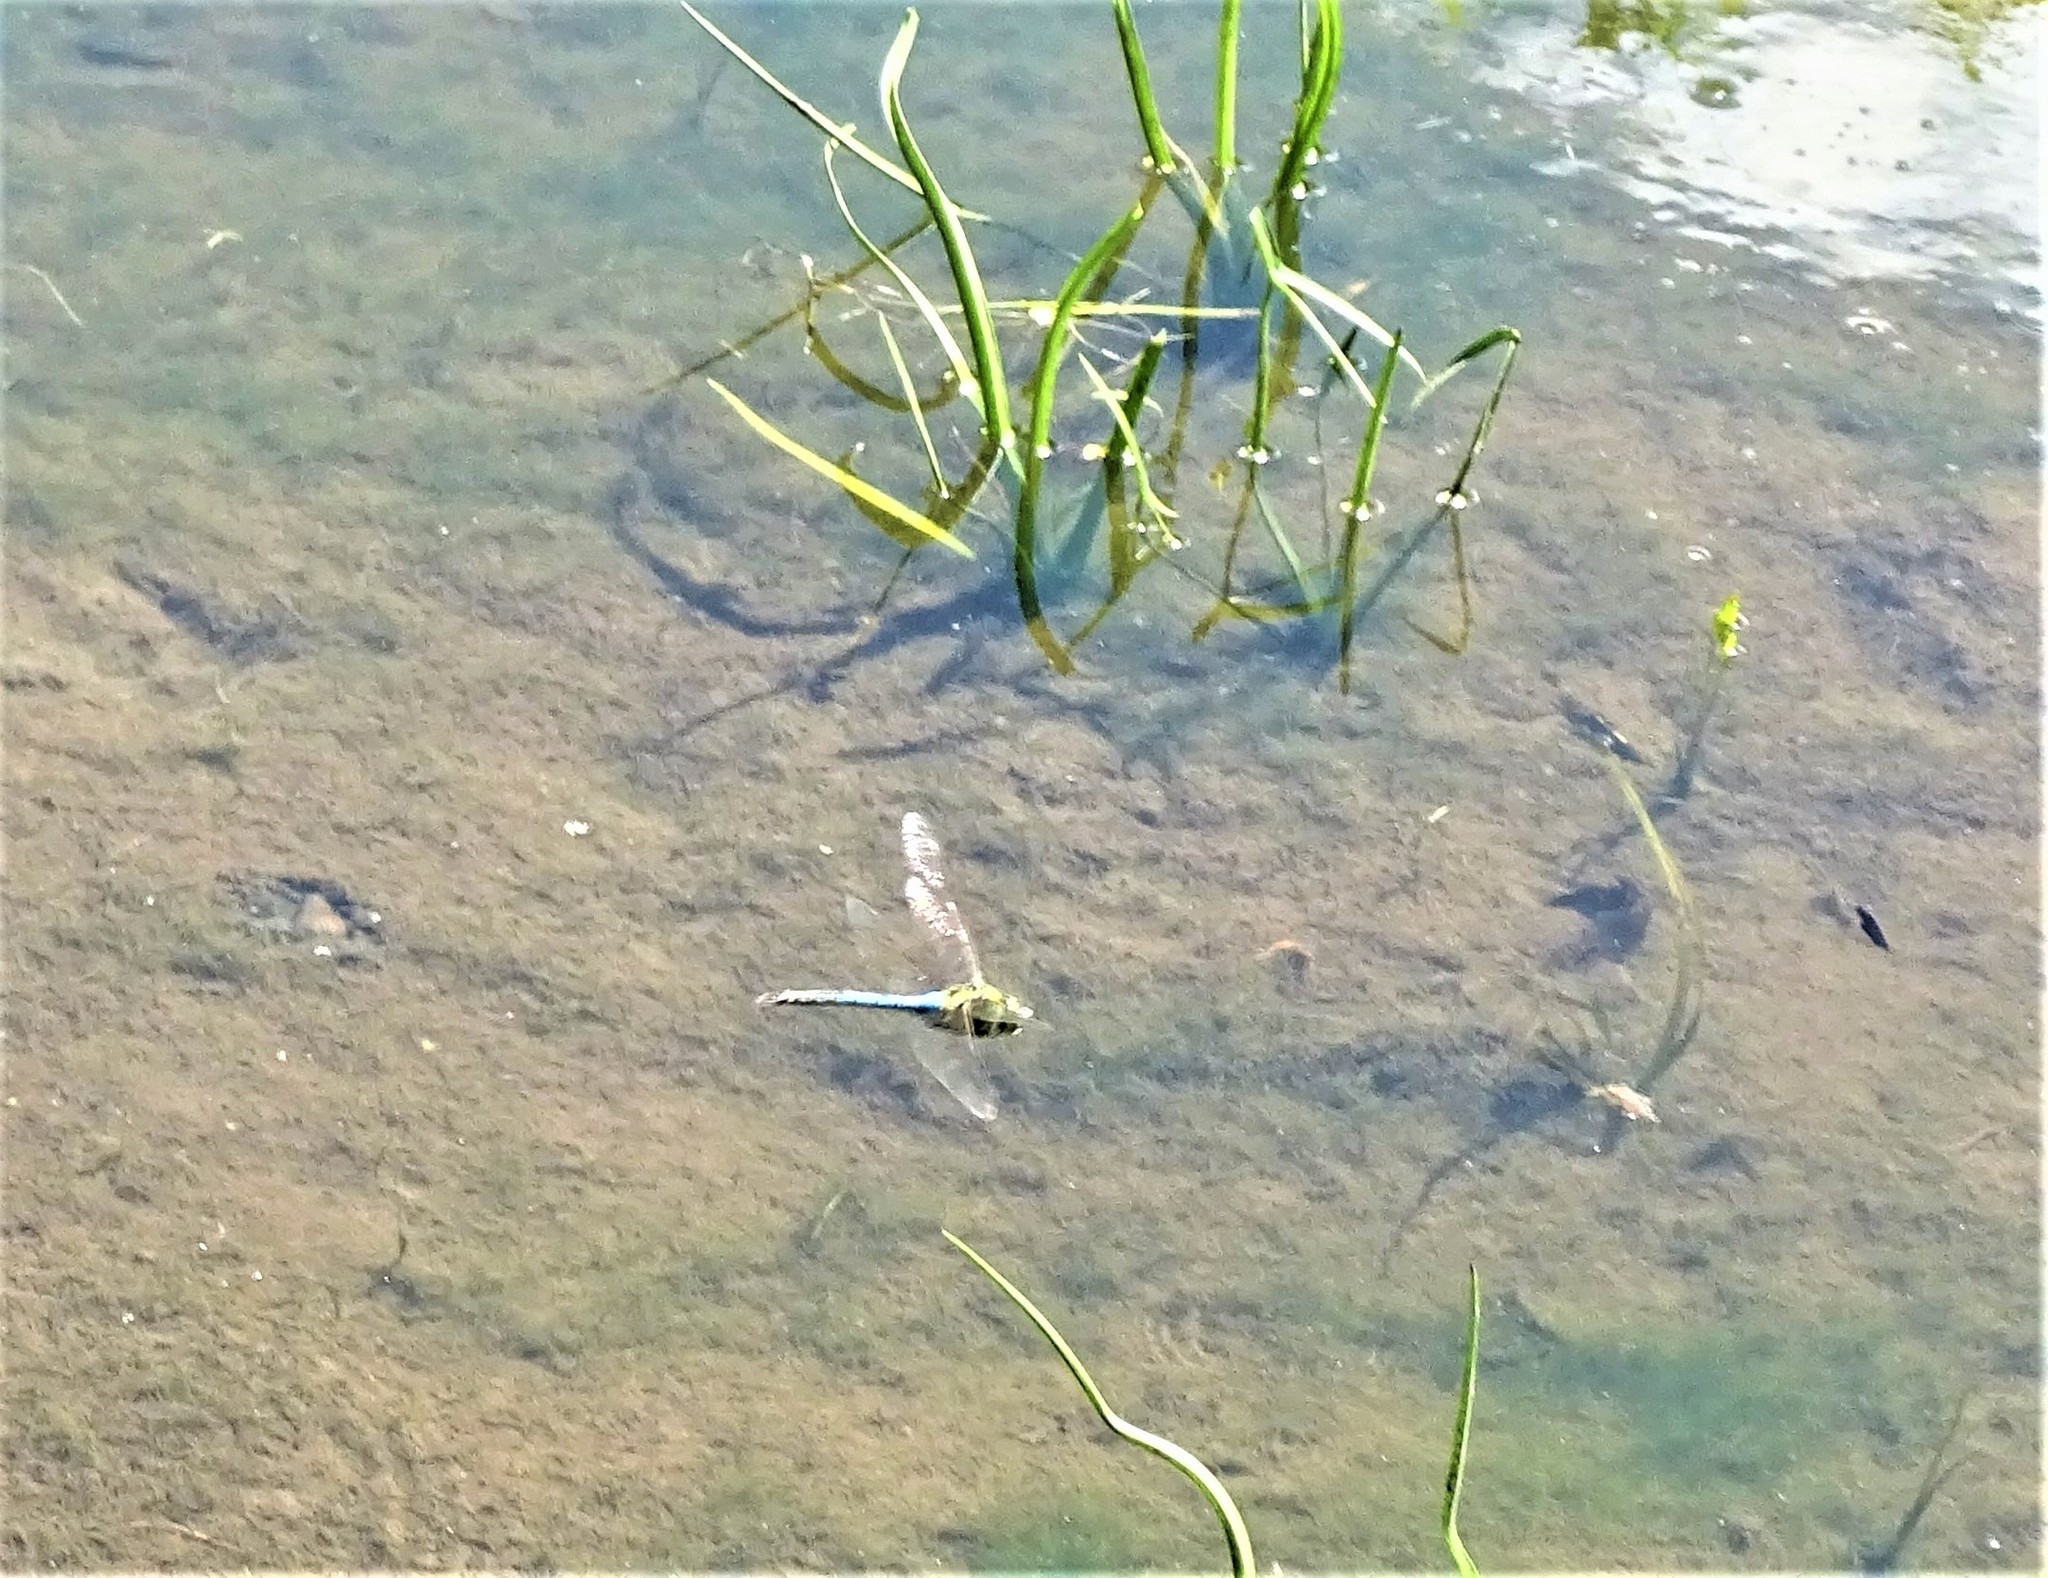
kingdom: Animalia
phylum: Arthropoda
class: Insecta
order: Odonata
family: Aeshnidae
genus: Anax
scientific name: Anax junius
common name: Common green darner
